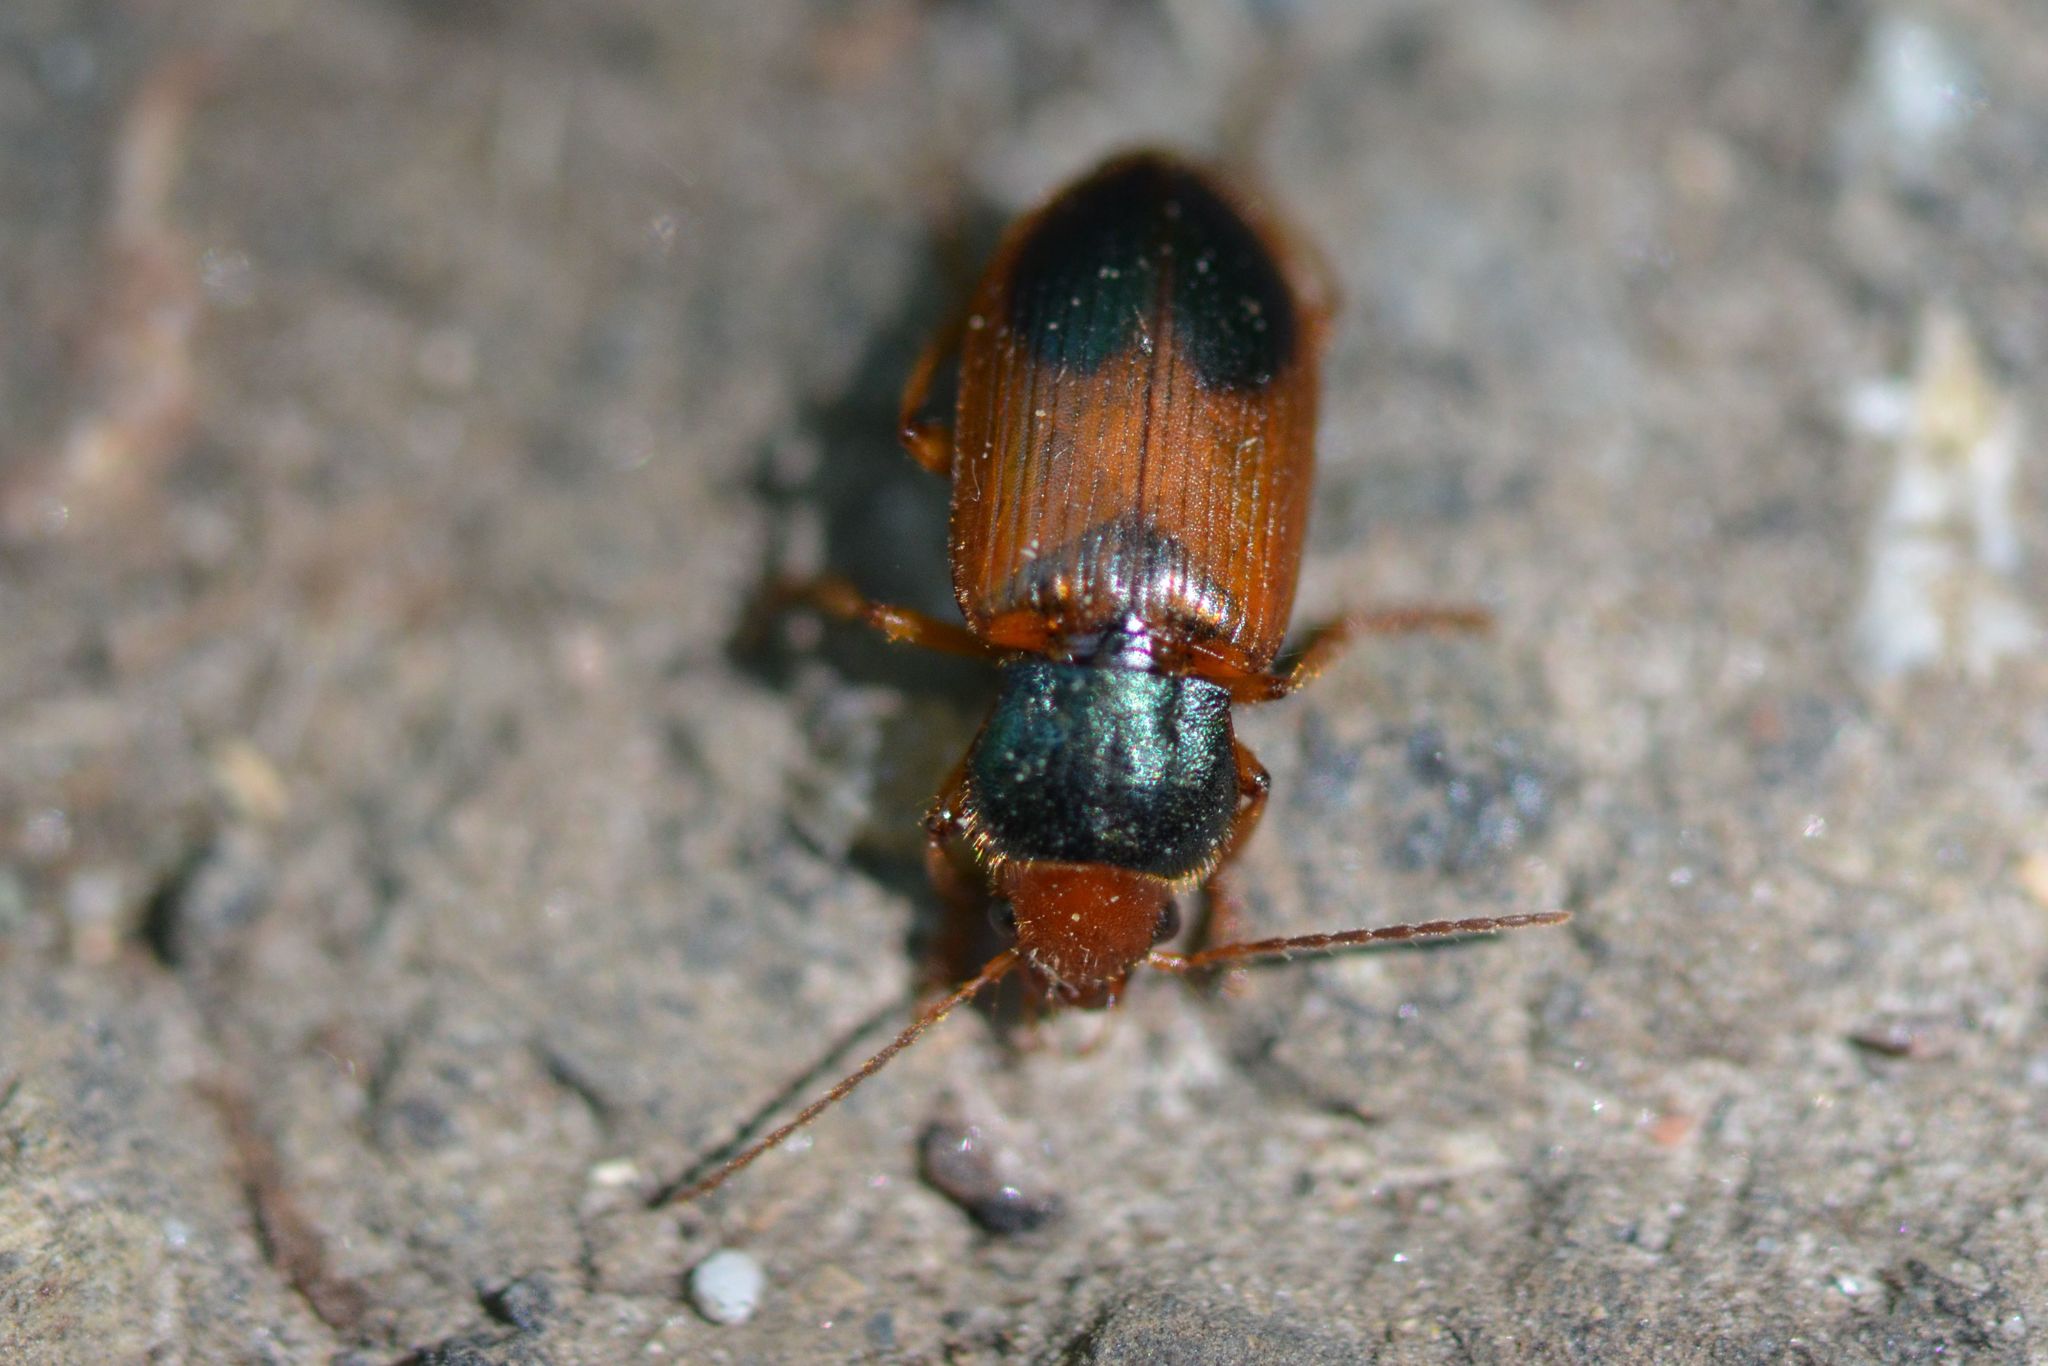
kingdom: Animalia
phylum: Arthropoda
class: Insecta
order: Coleoptera
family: Carabidae
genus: Diachromus
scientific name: Diachromus germanus
